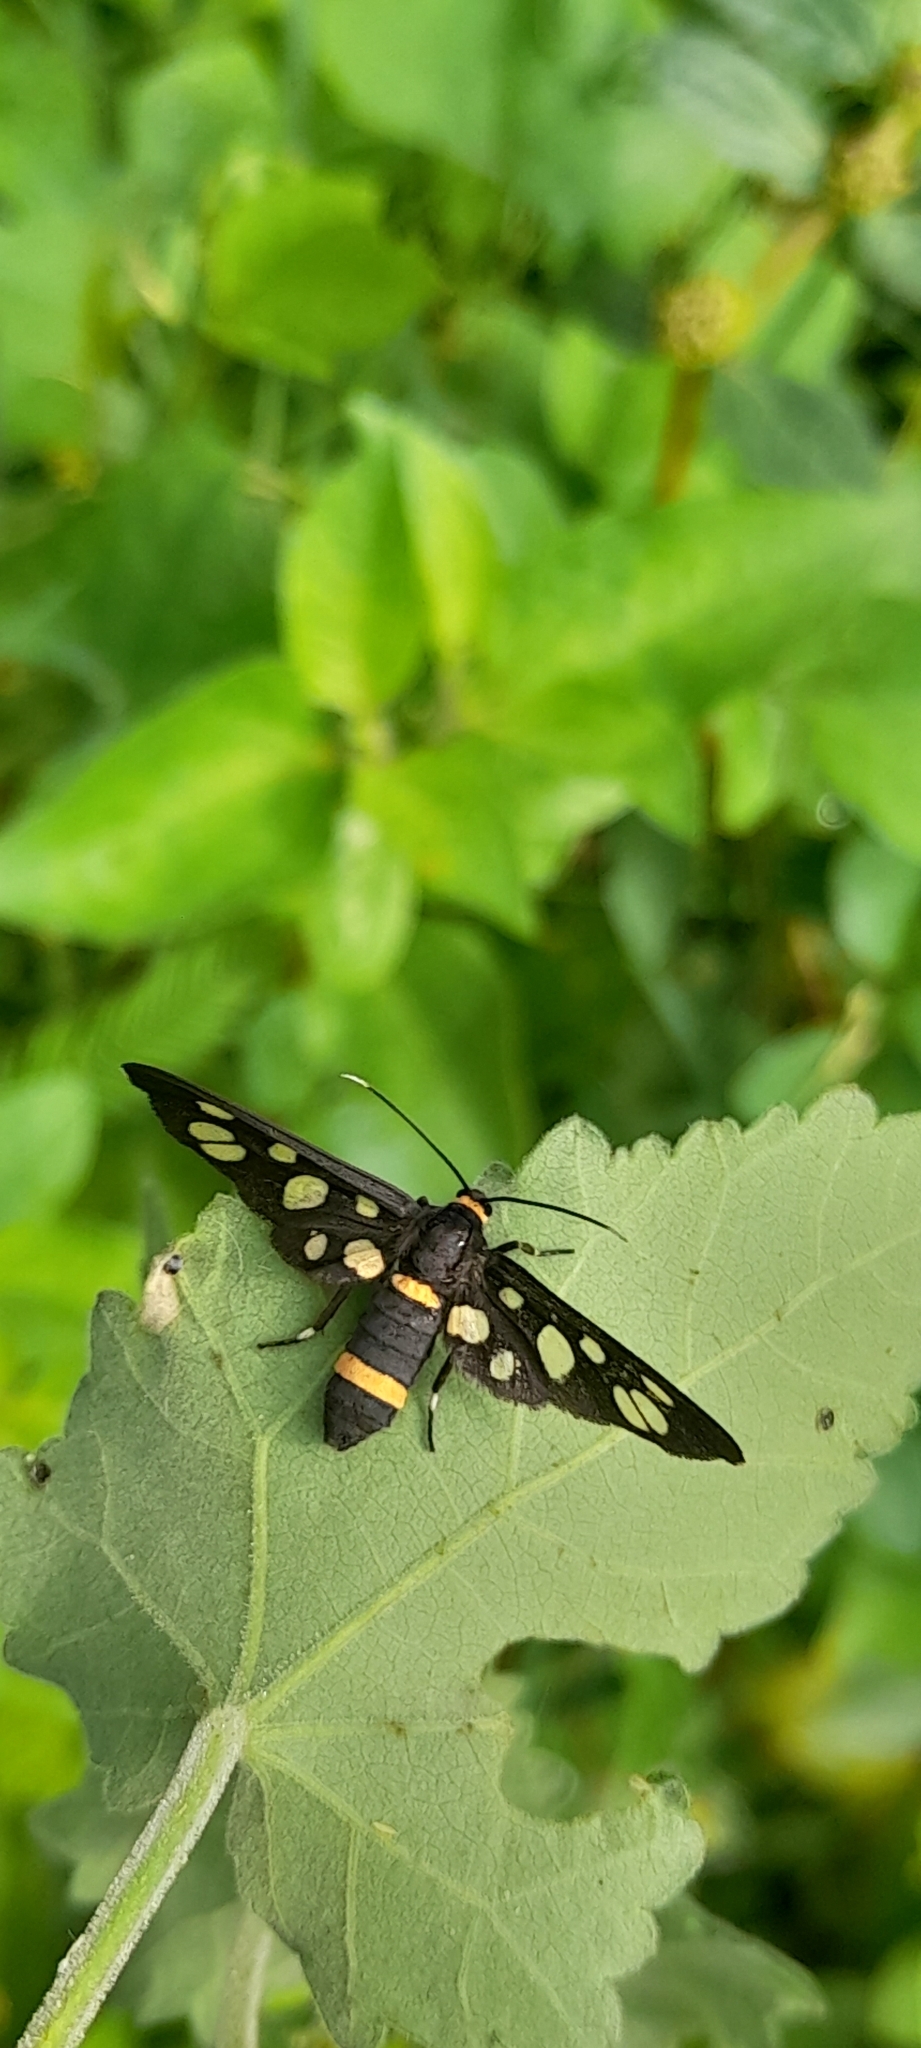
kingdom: Animalia
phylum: Arthropoda
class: Insecta
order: Lepidoptera
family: Erebidae
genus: Amata
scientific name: Amata cyssea
